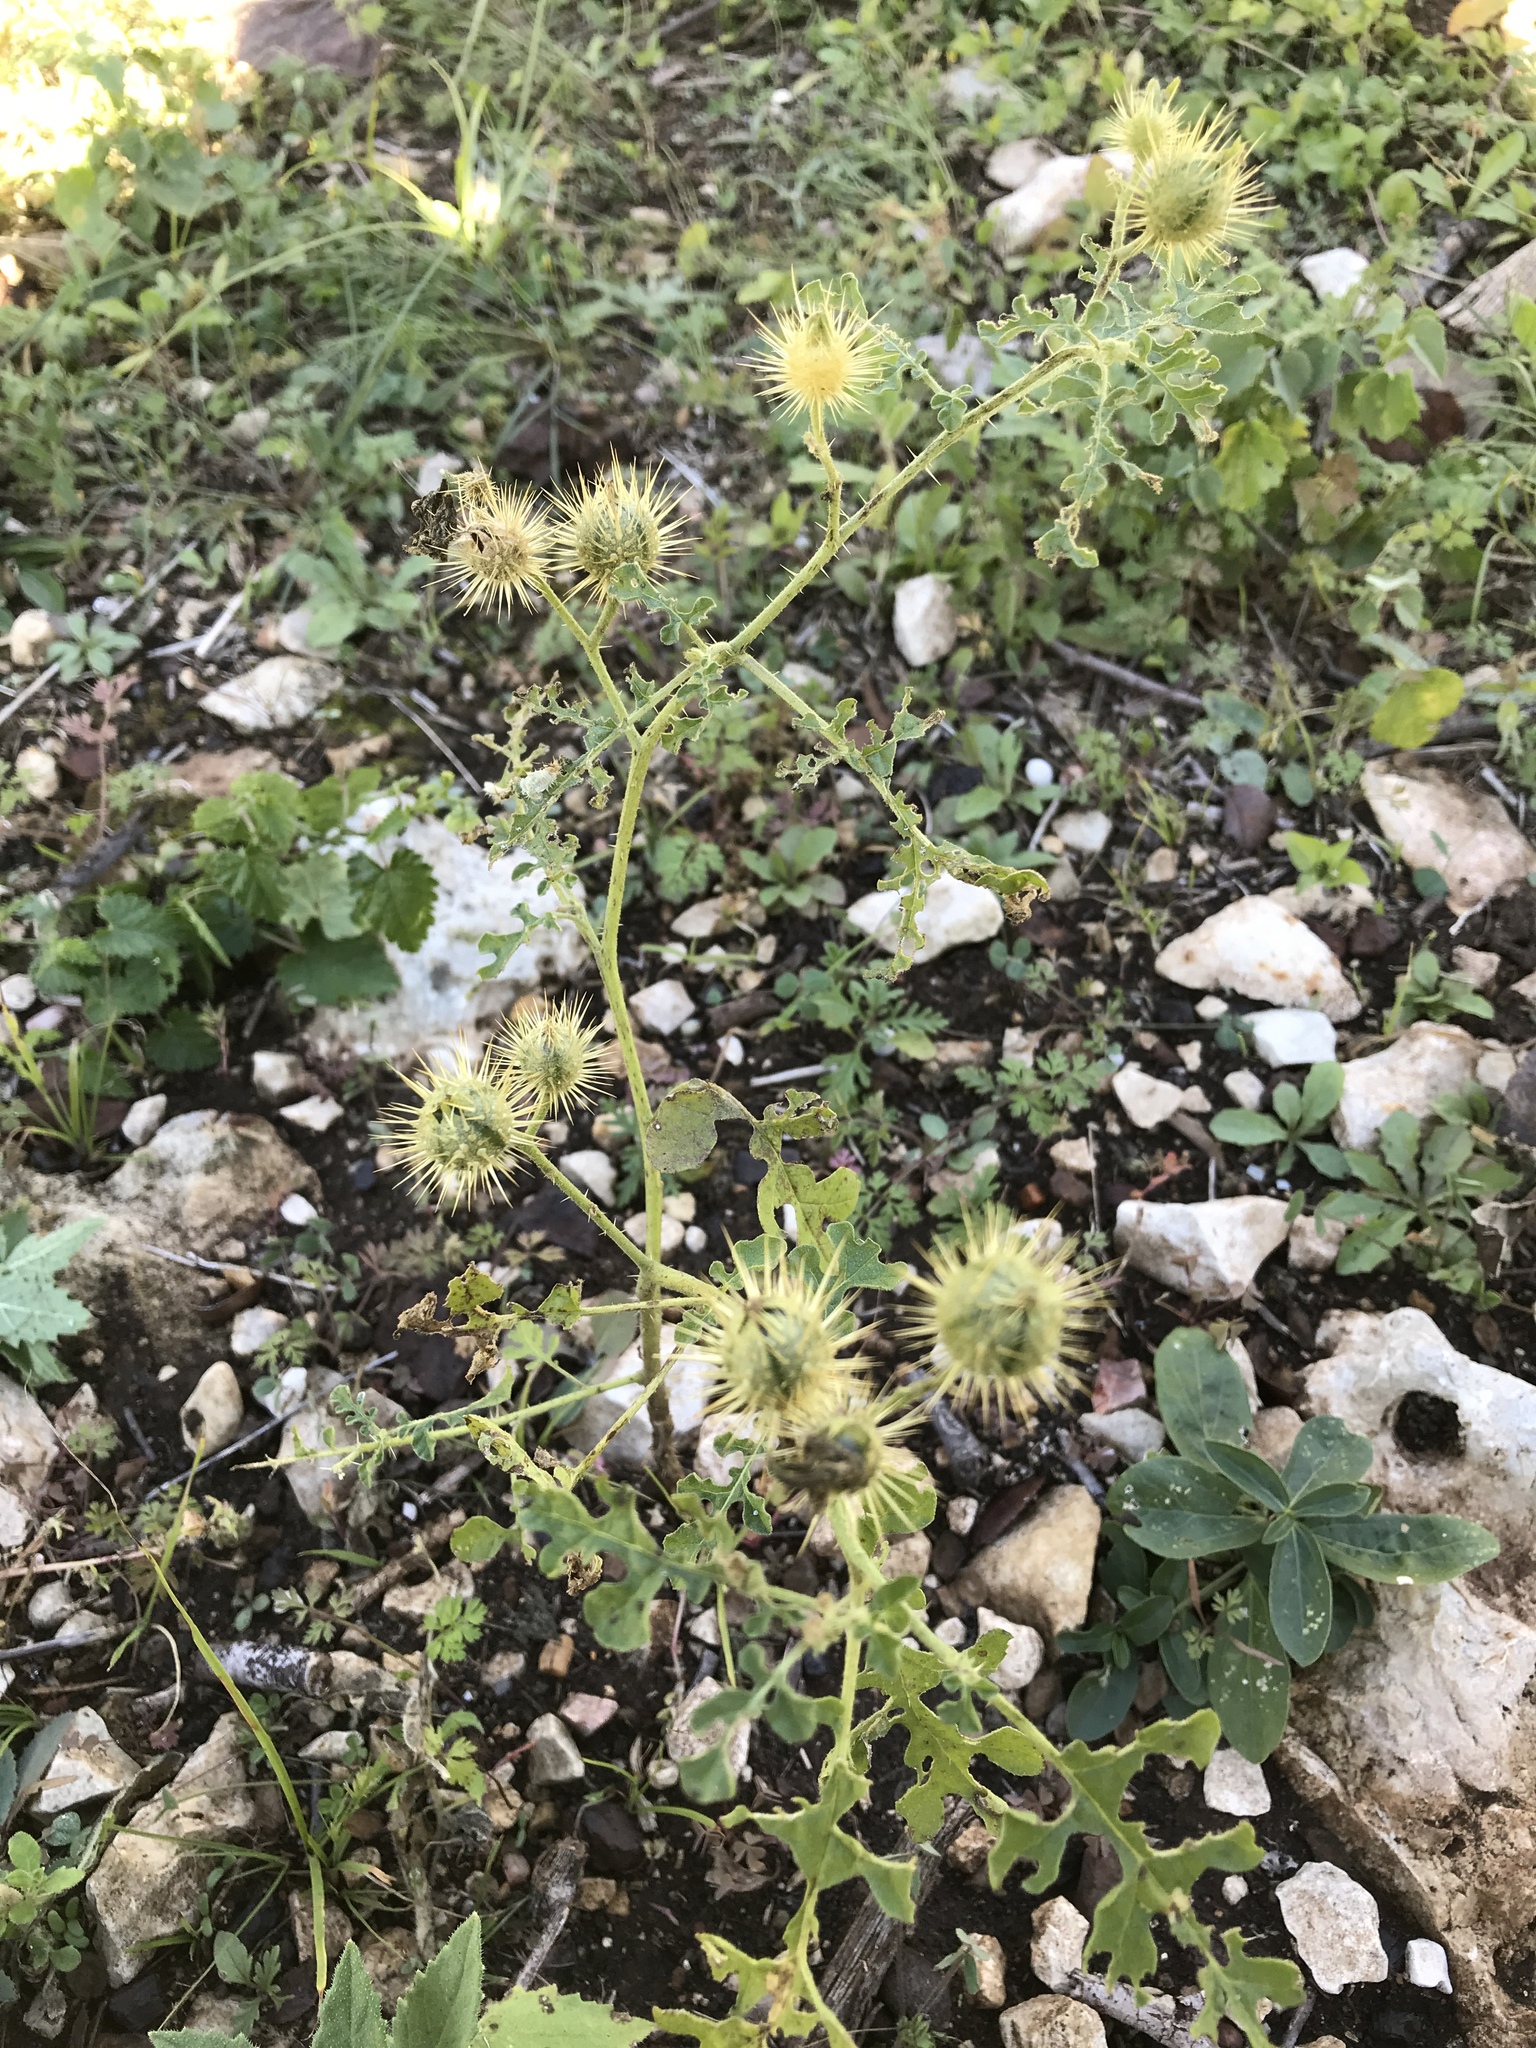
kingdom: Plantae
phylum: Tracheophyta
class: Magnoliopsida
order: Solanales
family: Solanaceae
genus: Solanum
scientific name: Solanum angustifolium
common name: Buffalobur nightshade
